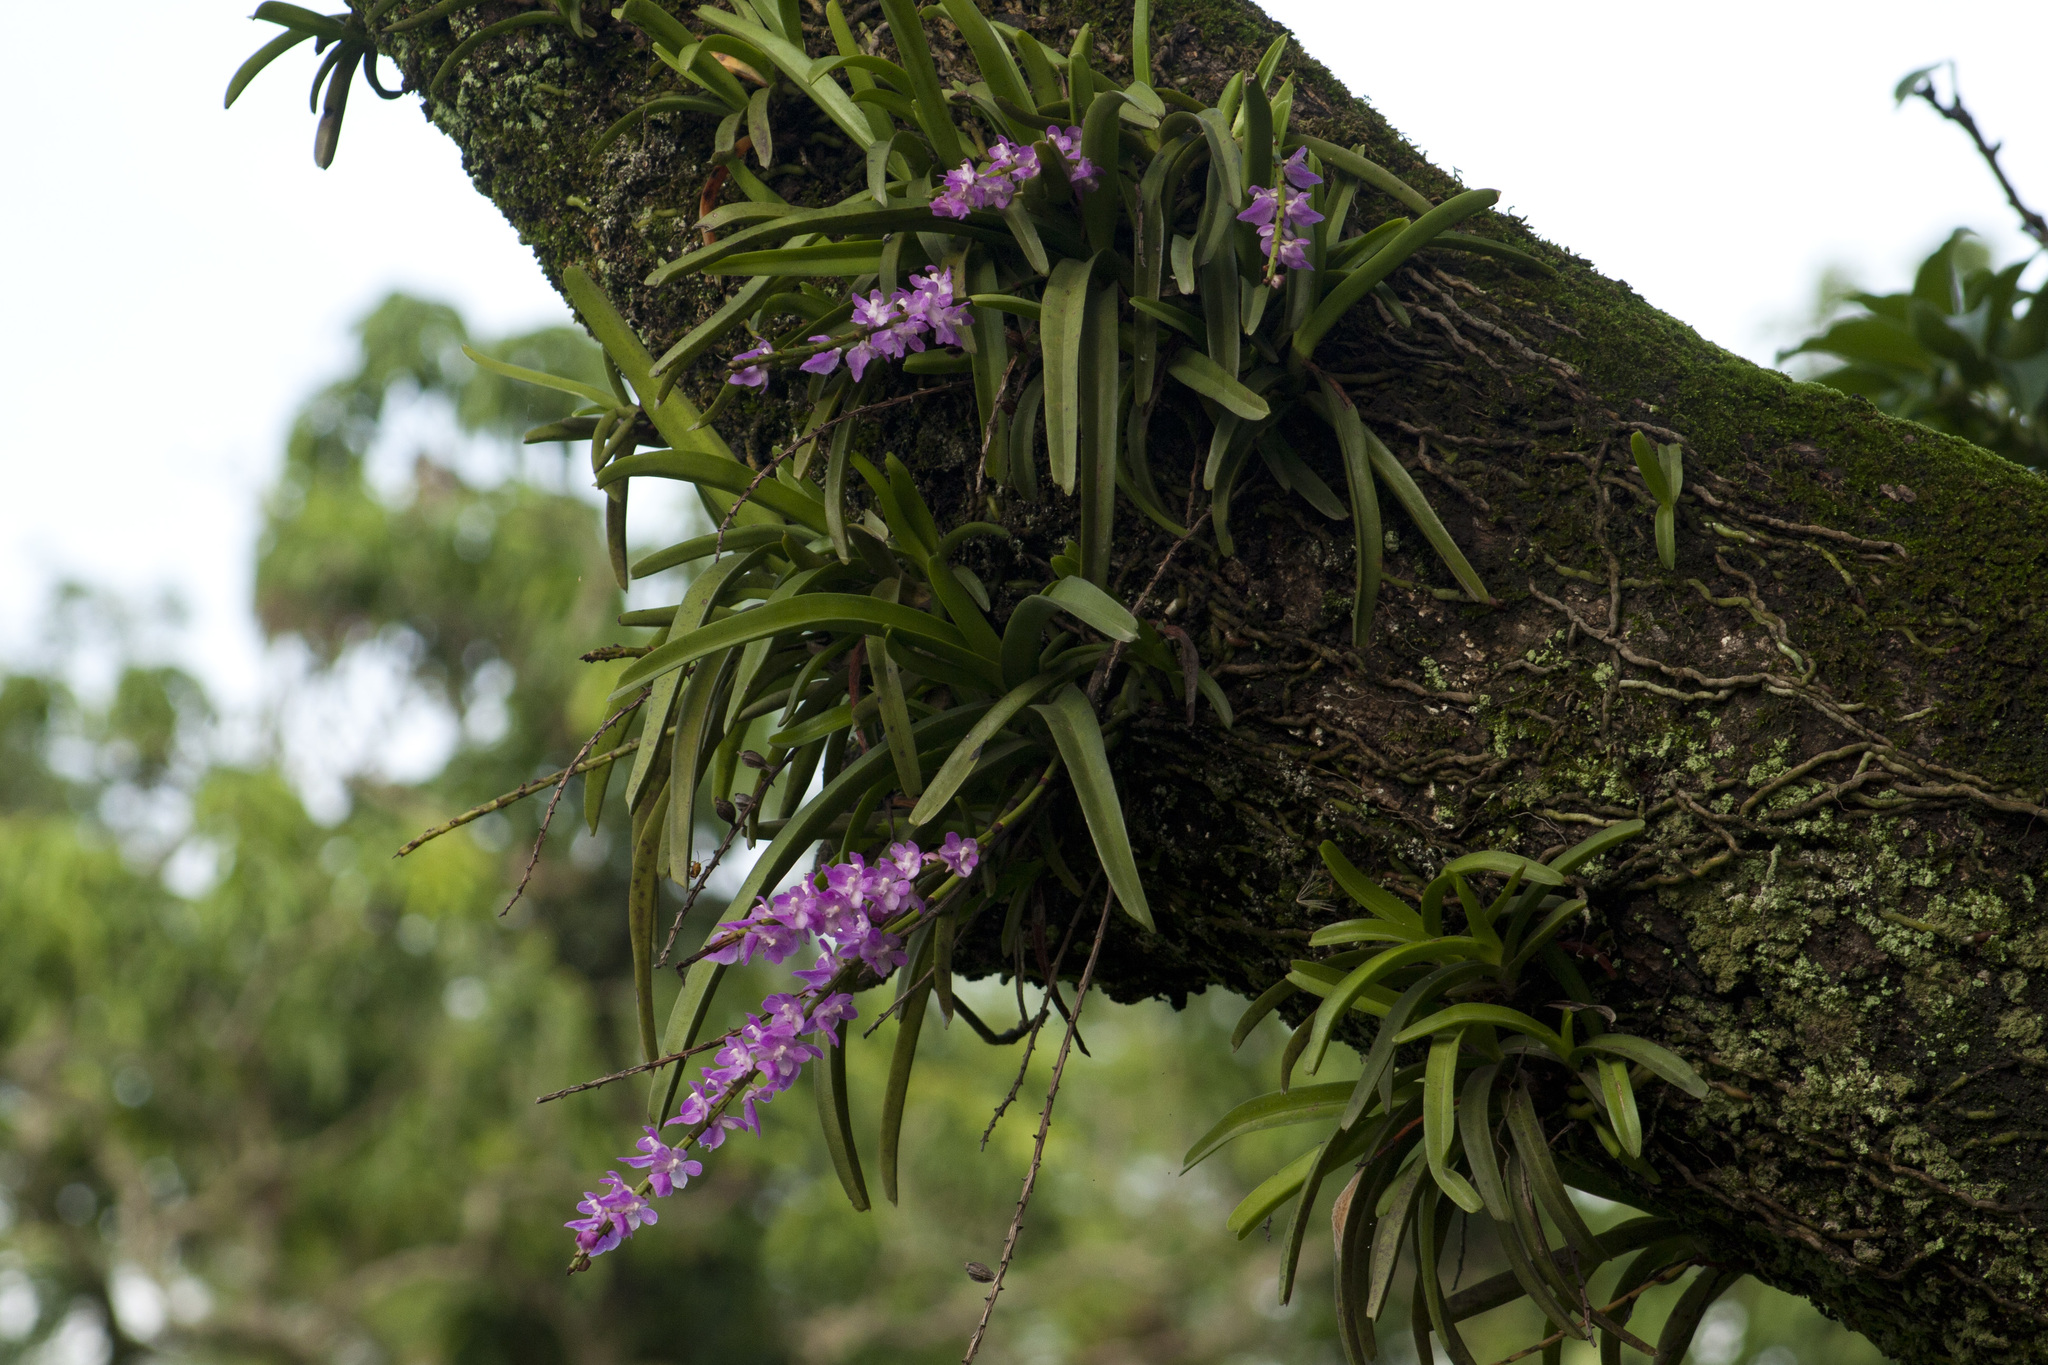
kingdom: Plantae
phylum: Tracheophyta
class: Liliopsida
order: Asparagales
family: Orchidaceae
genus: Aerides
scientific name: Aerides multiflora
